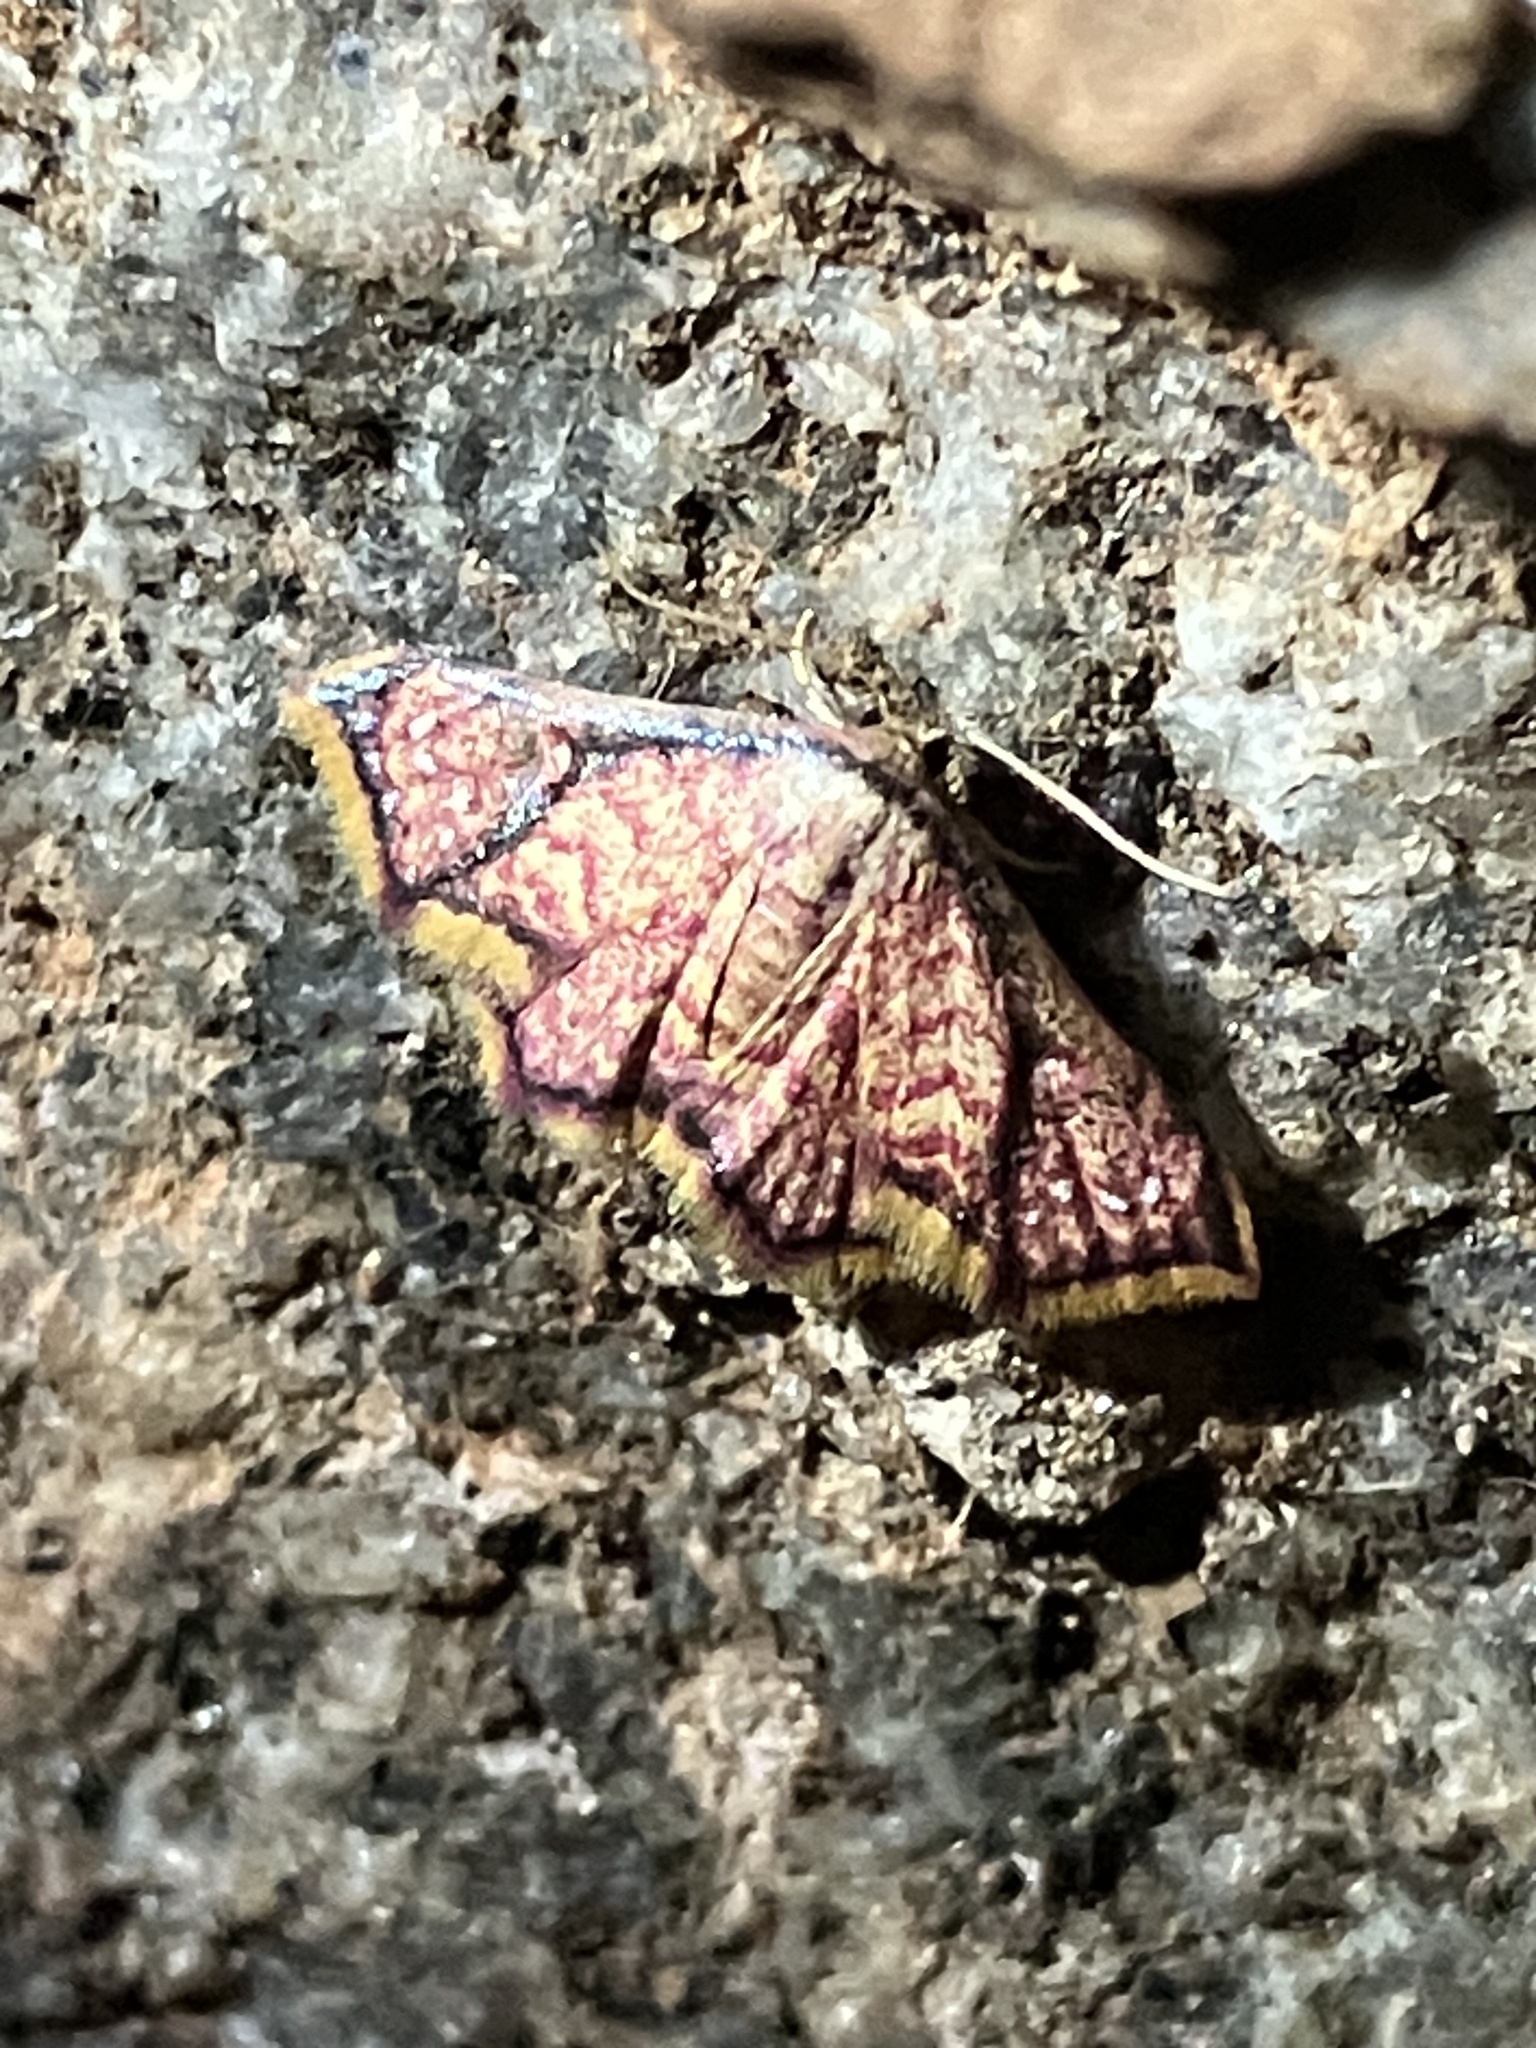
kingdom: Animalia
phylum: Arthropoda
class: Insecta
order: Lepidoptera
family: Noctuidae
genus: Enispa
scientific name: Enispa elataria
